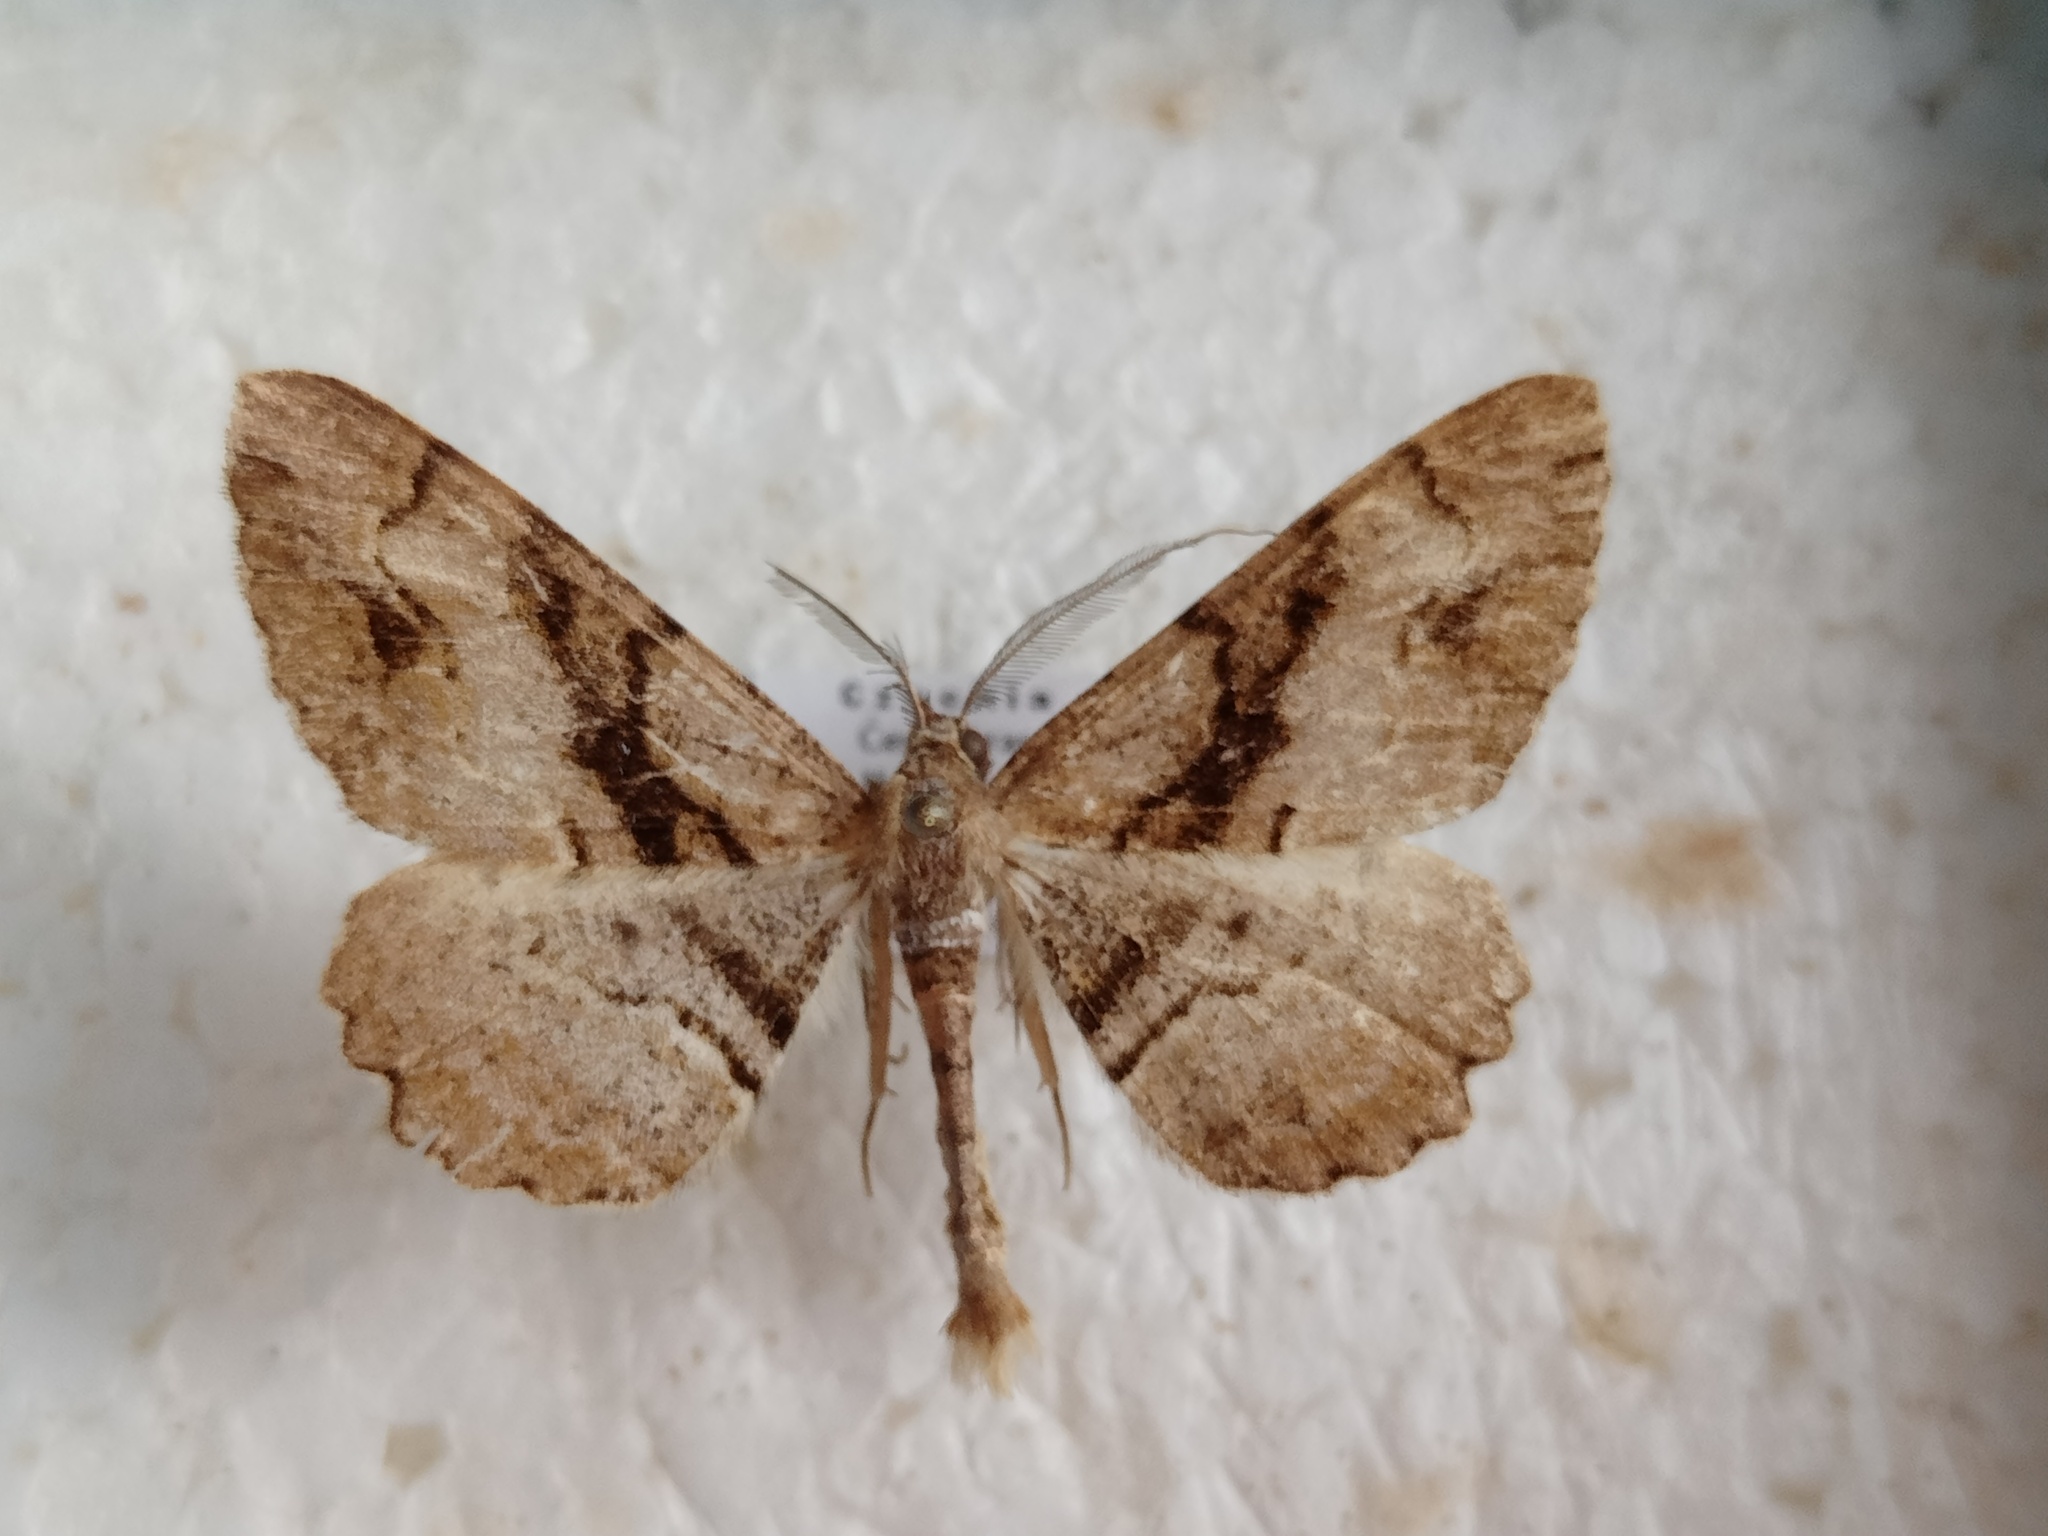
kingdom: Animalia
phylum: Arthropoda
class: Insecta
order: Lepidoptera
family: Geometridae
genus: Alcis
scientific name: Alcis deversata
